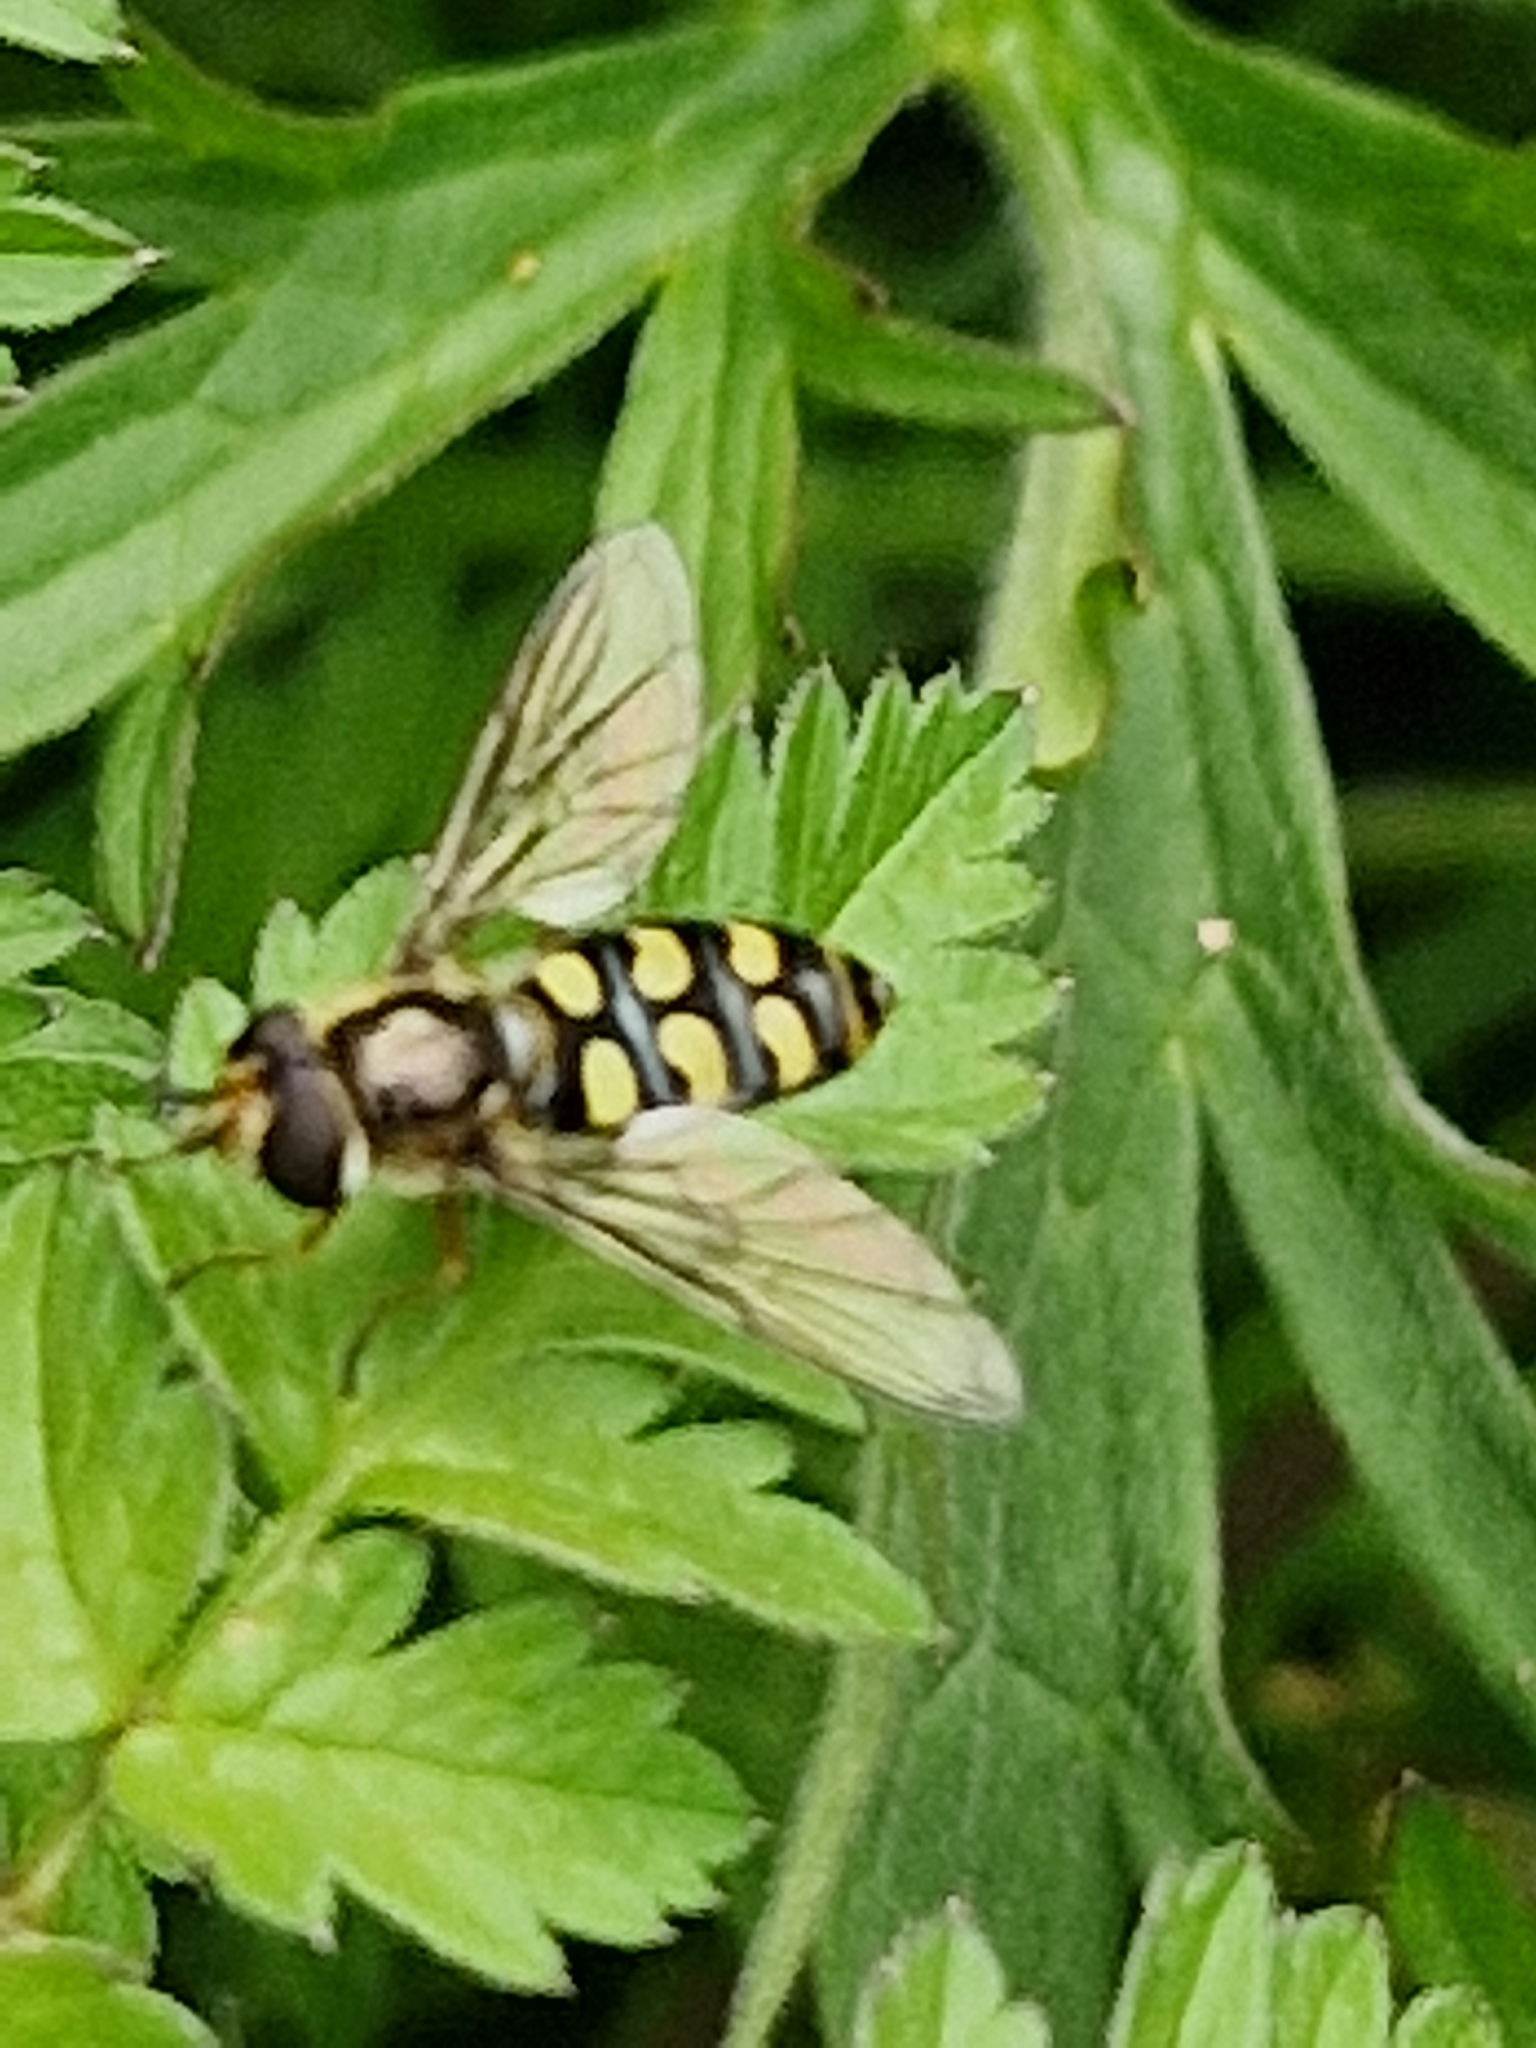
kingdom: Animalia
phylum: Arthropoda
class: Insecta
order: Diptera
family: Syrphidae
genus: Eupeodes
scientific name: Eupeodes
